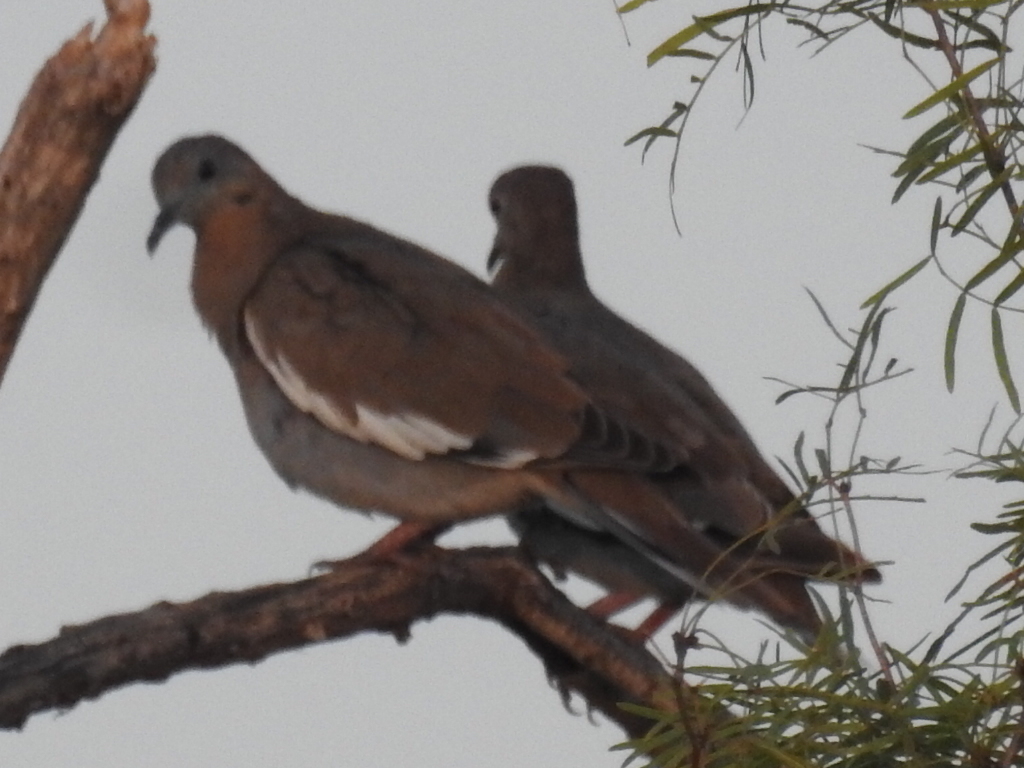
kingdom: Animalia
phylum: Chordata
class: Aves
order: Columbiformes
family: Columbidae
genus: Zenaida
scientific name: Zenaida asiatica
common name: White-winged dove
